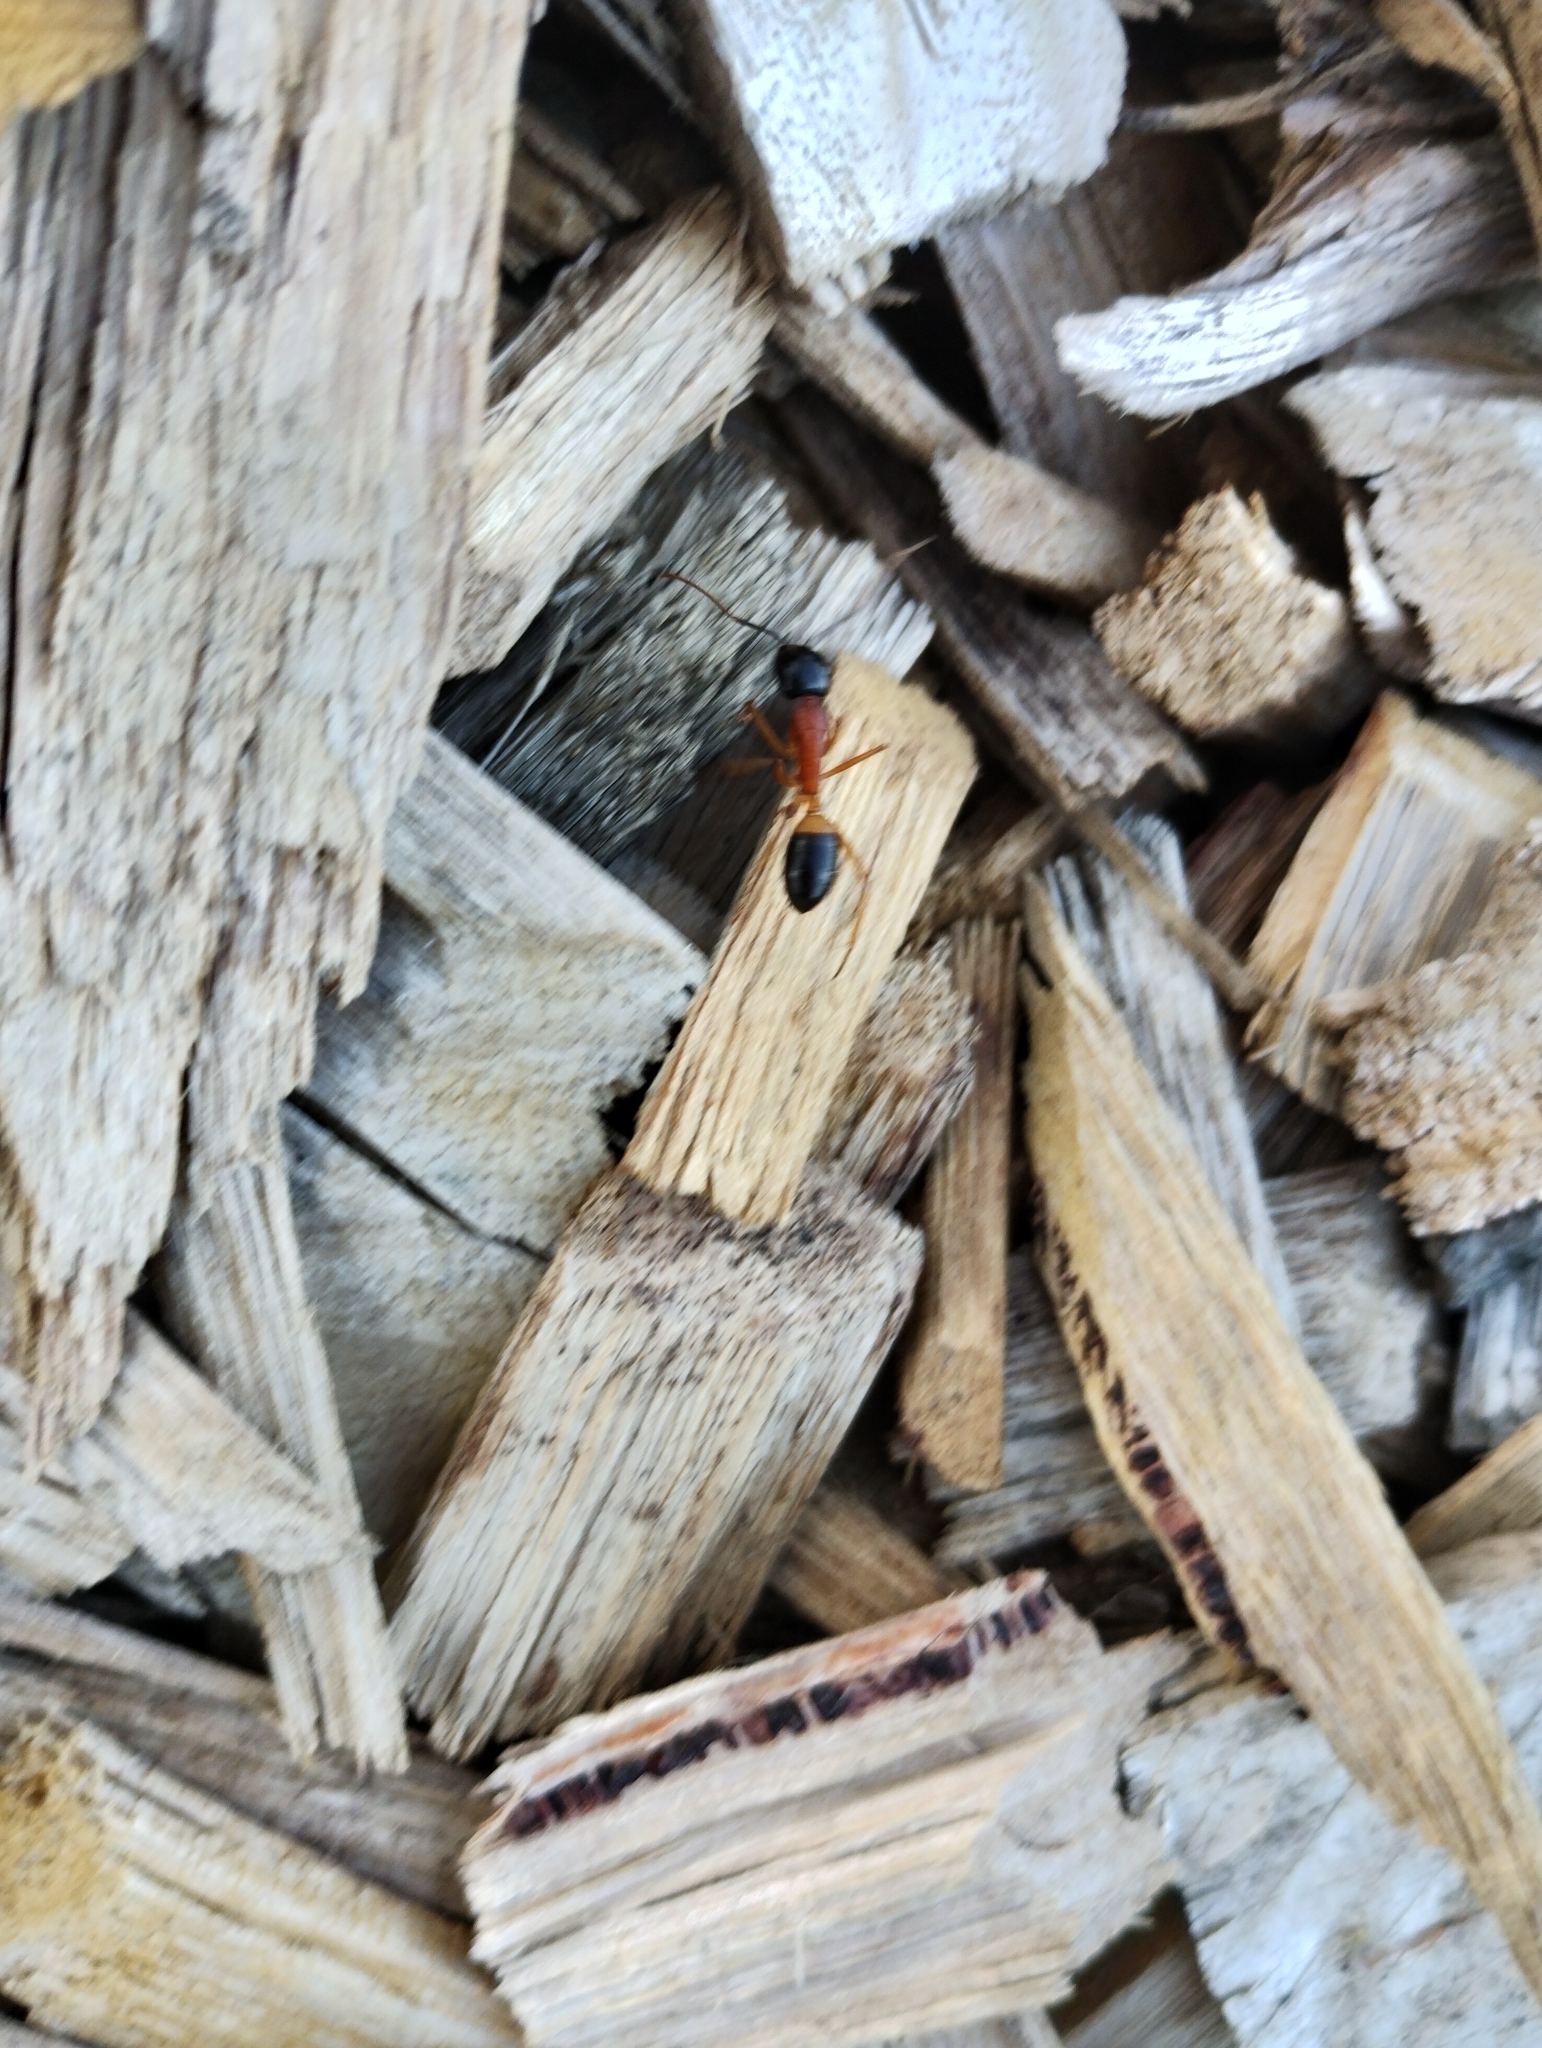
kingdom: Animalia
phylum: Arthropoda
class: Insecta
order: Hymenoptera
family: Formicidae
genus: Camponotus
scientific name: Camponotus consobrinus
